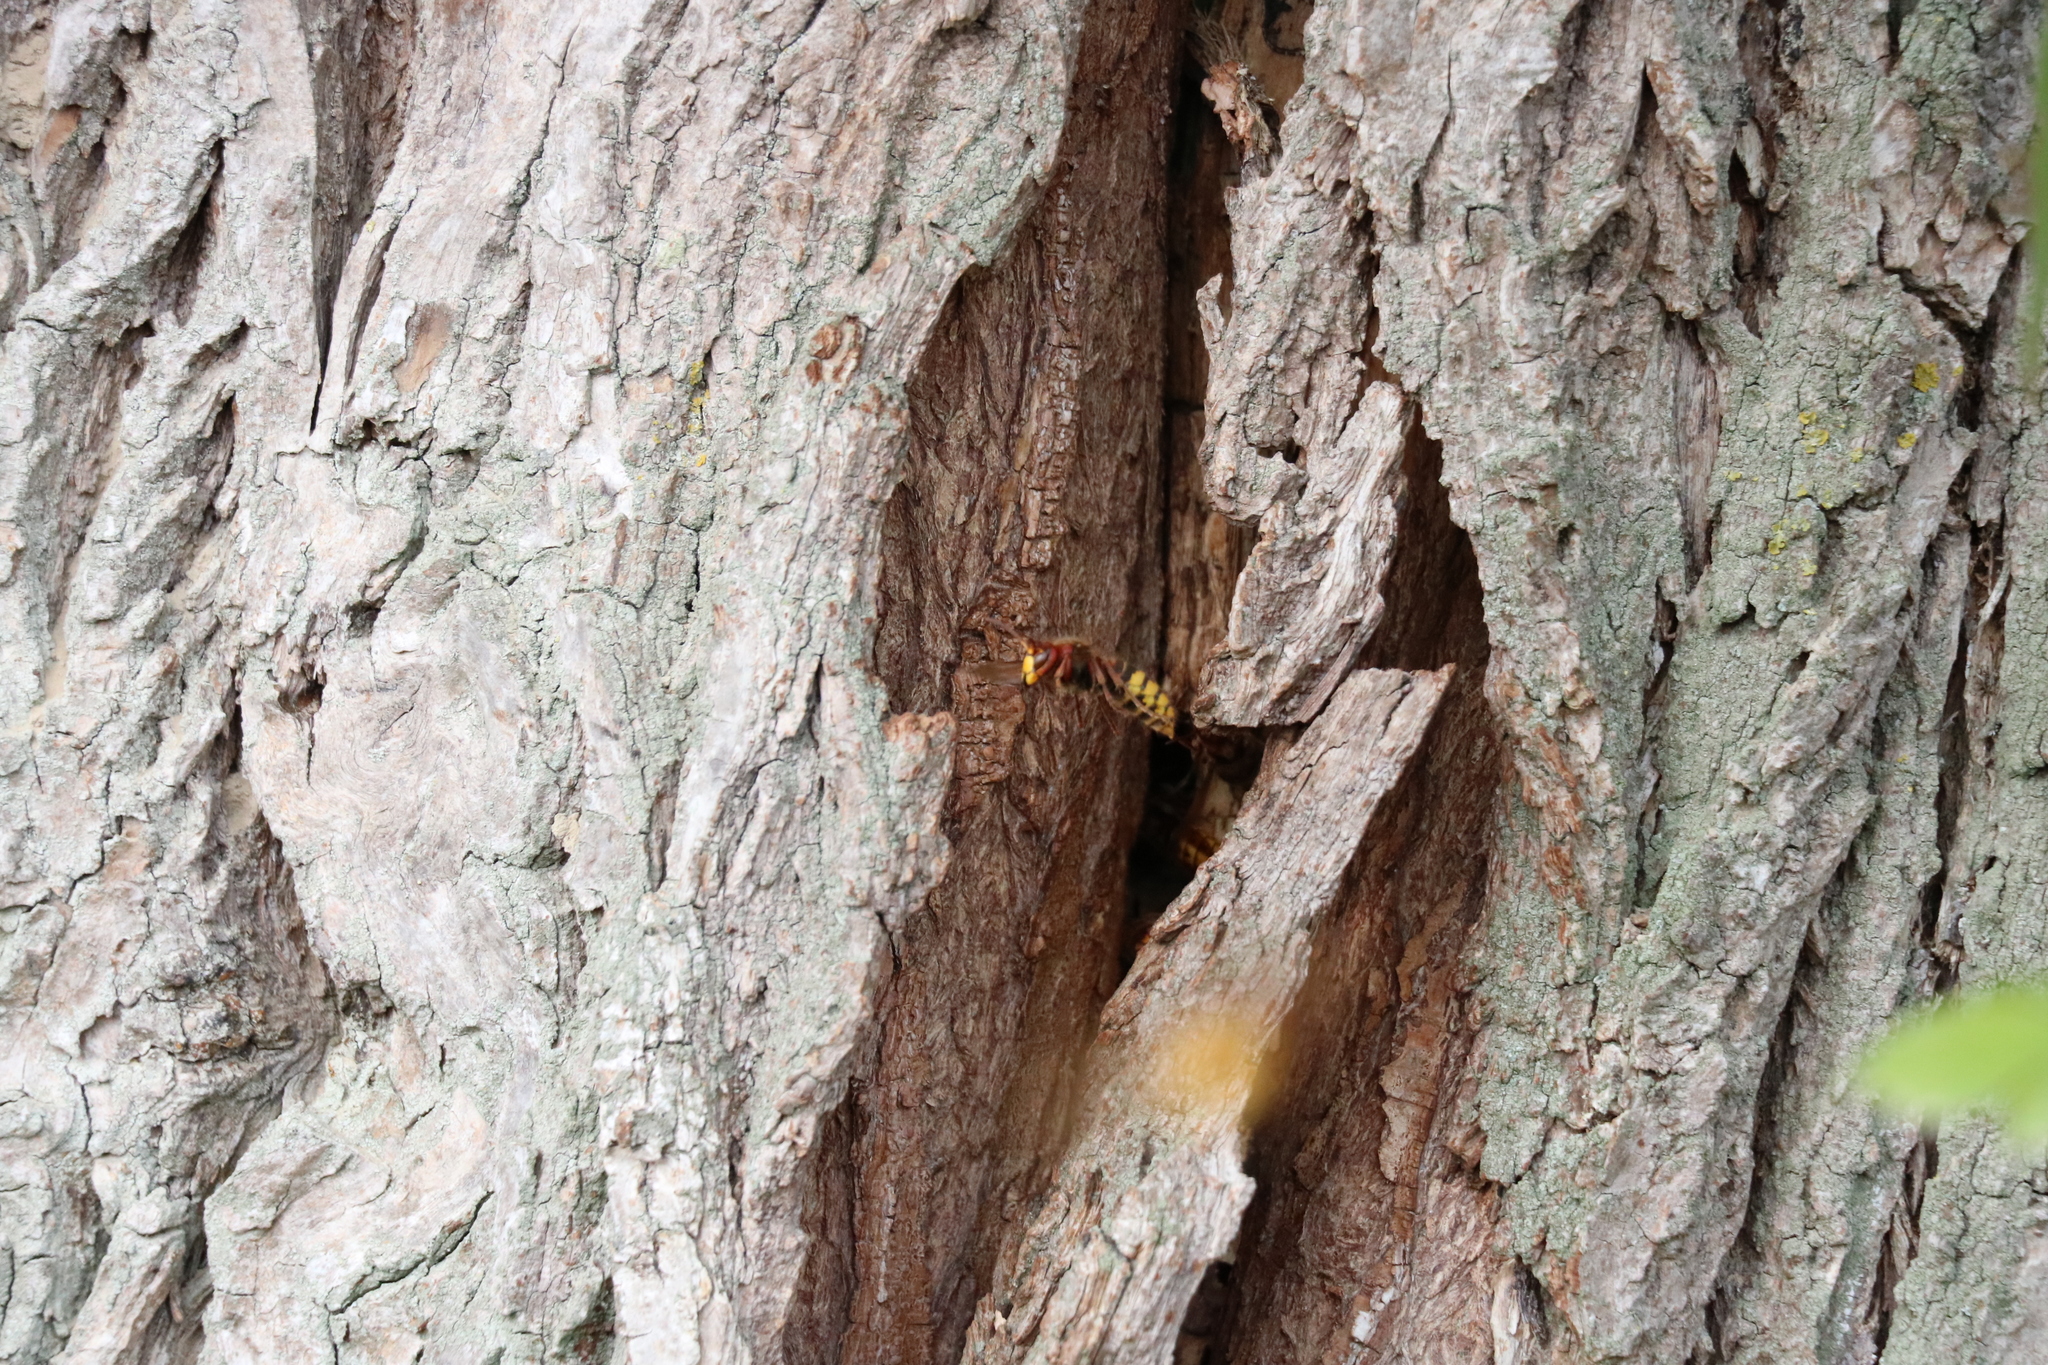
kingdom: Animalia
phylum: Arthropoda
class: Insecta
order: Hymenoptera
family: Vespidae
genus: Vespa
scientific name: Vespa crabro
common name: Hornet
